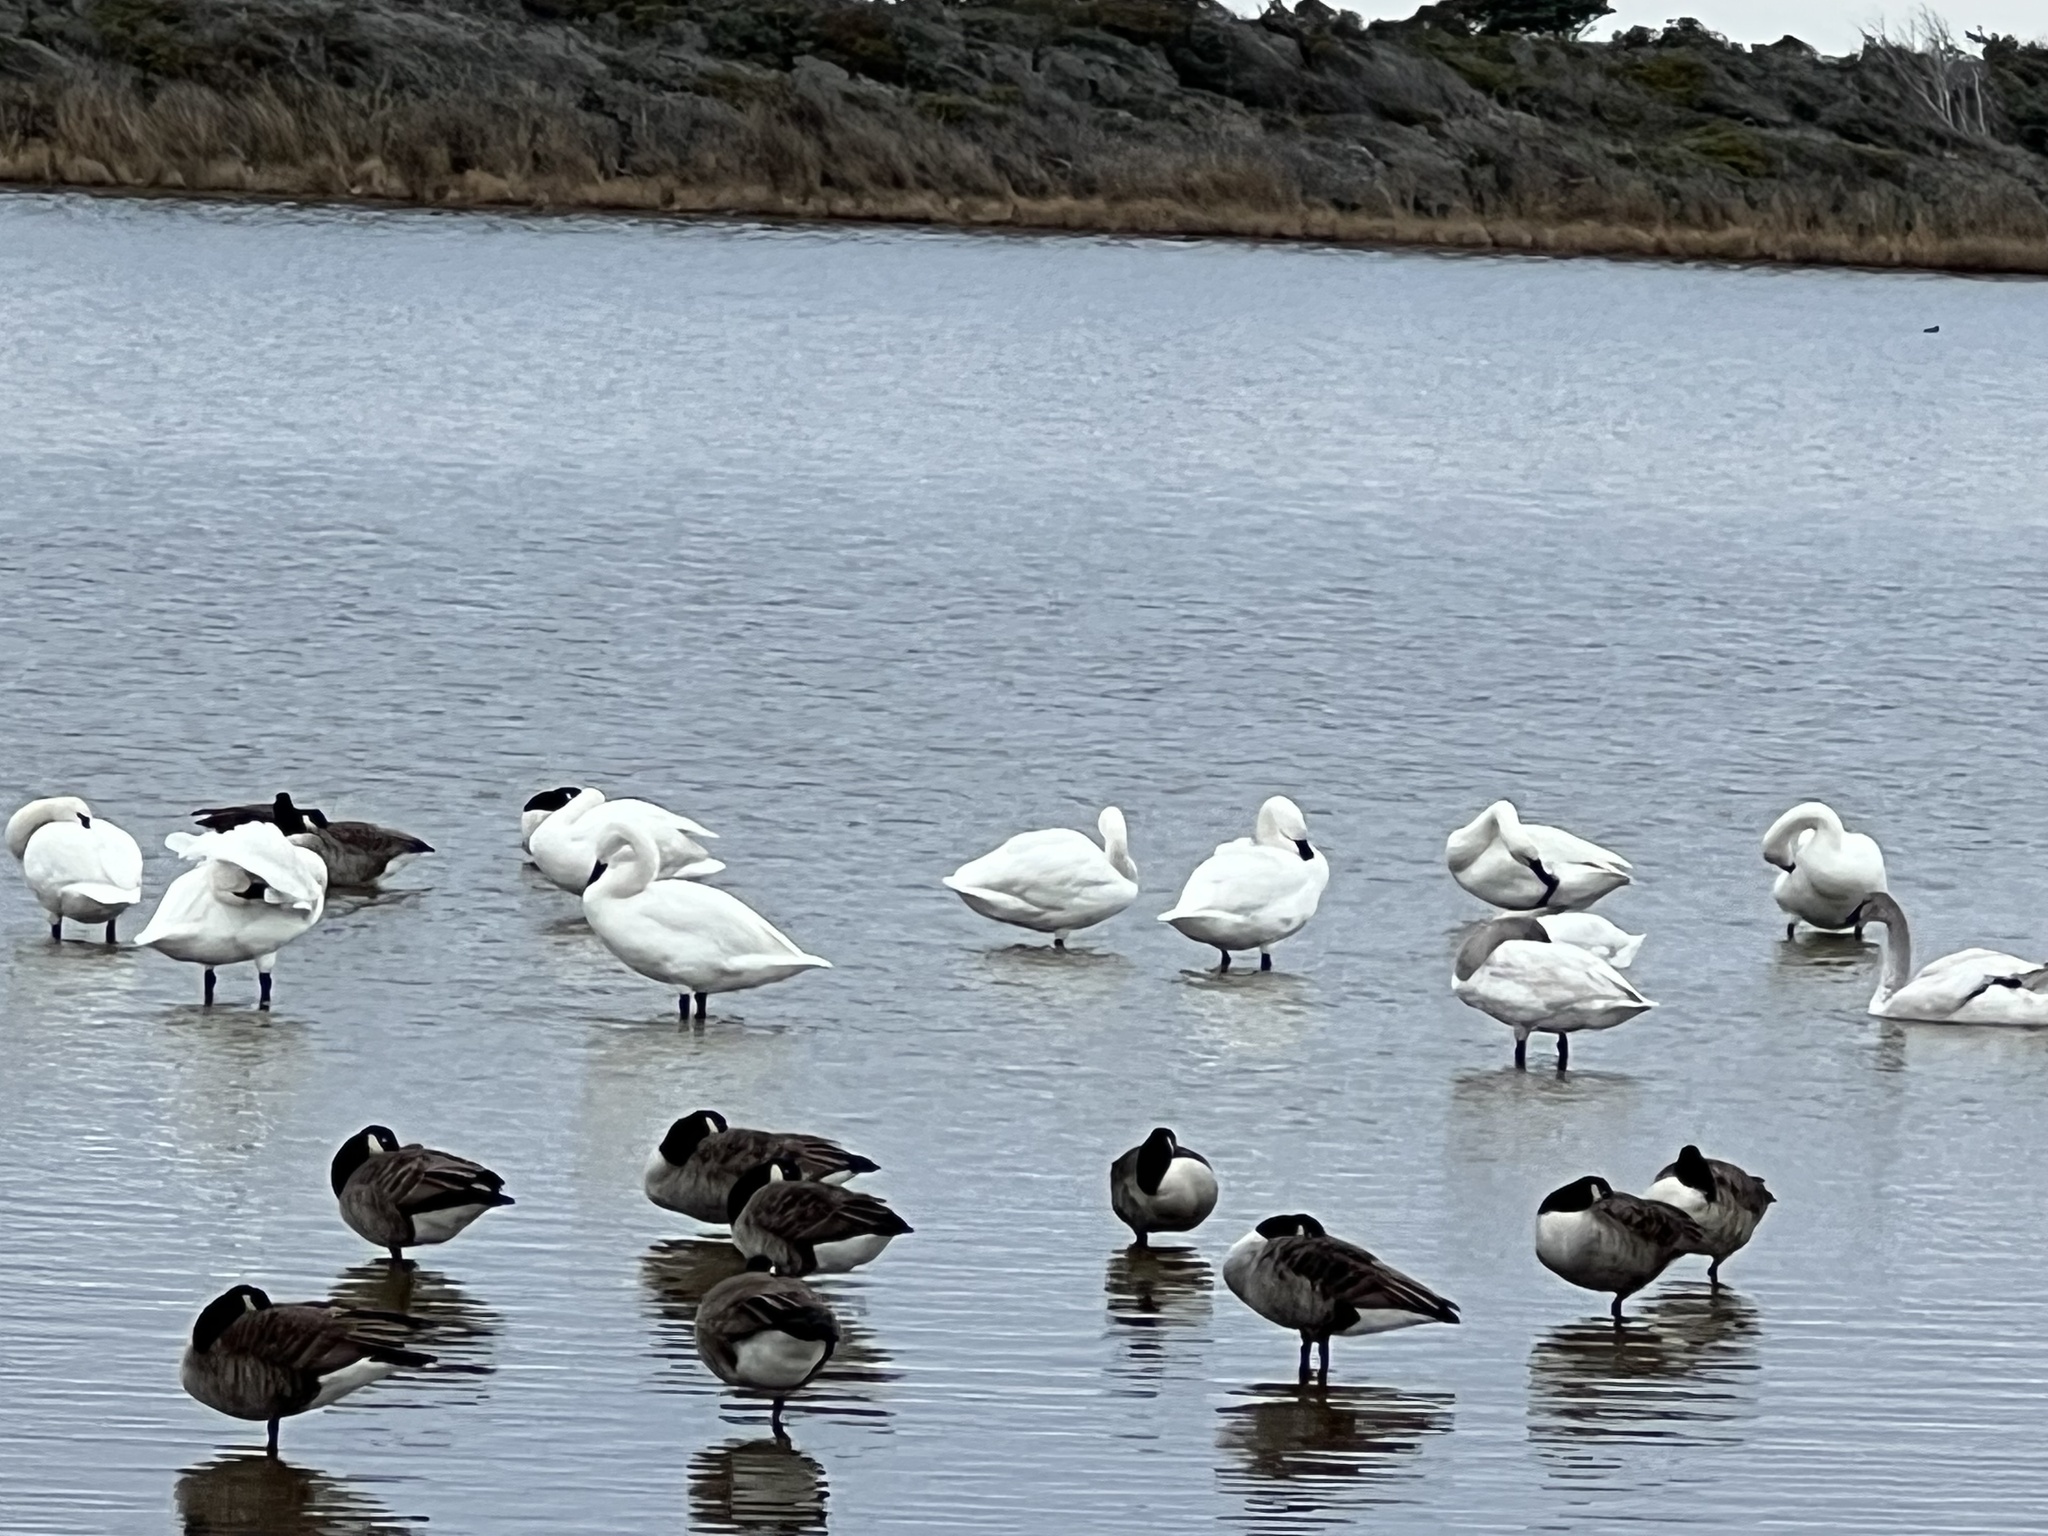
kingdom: Animalia
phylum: Chordata
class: Aves
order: Anseriformes
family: Anatidae
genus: Branta
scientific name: Branta canadensis
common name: Canada goose
